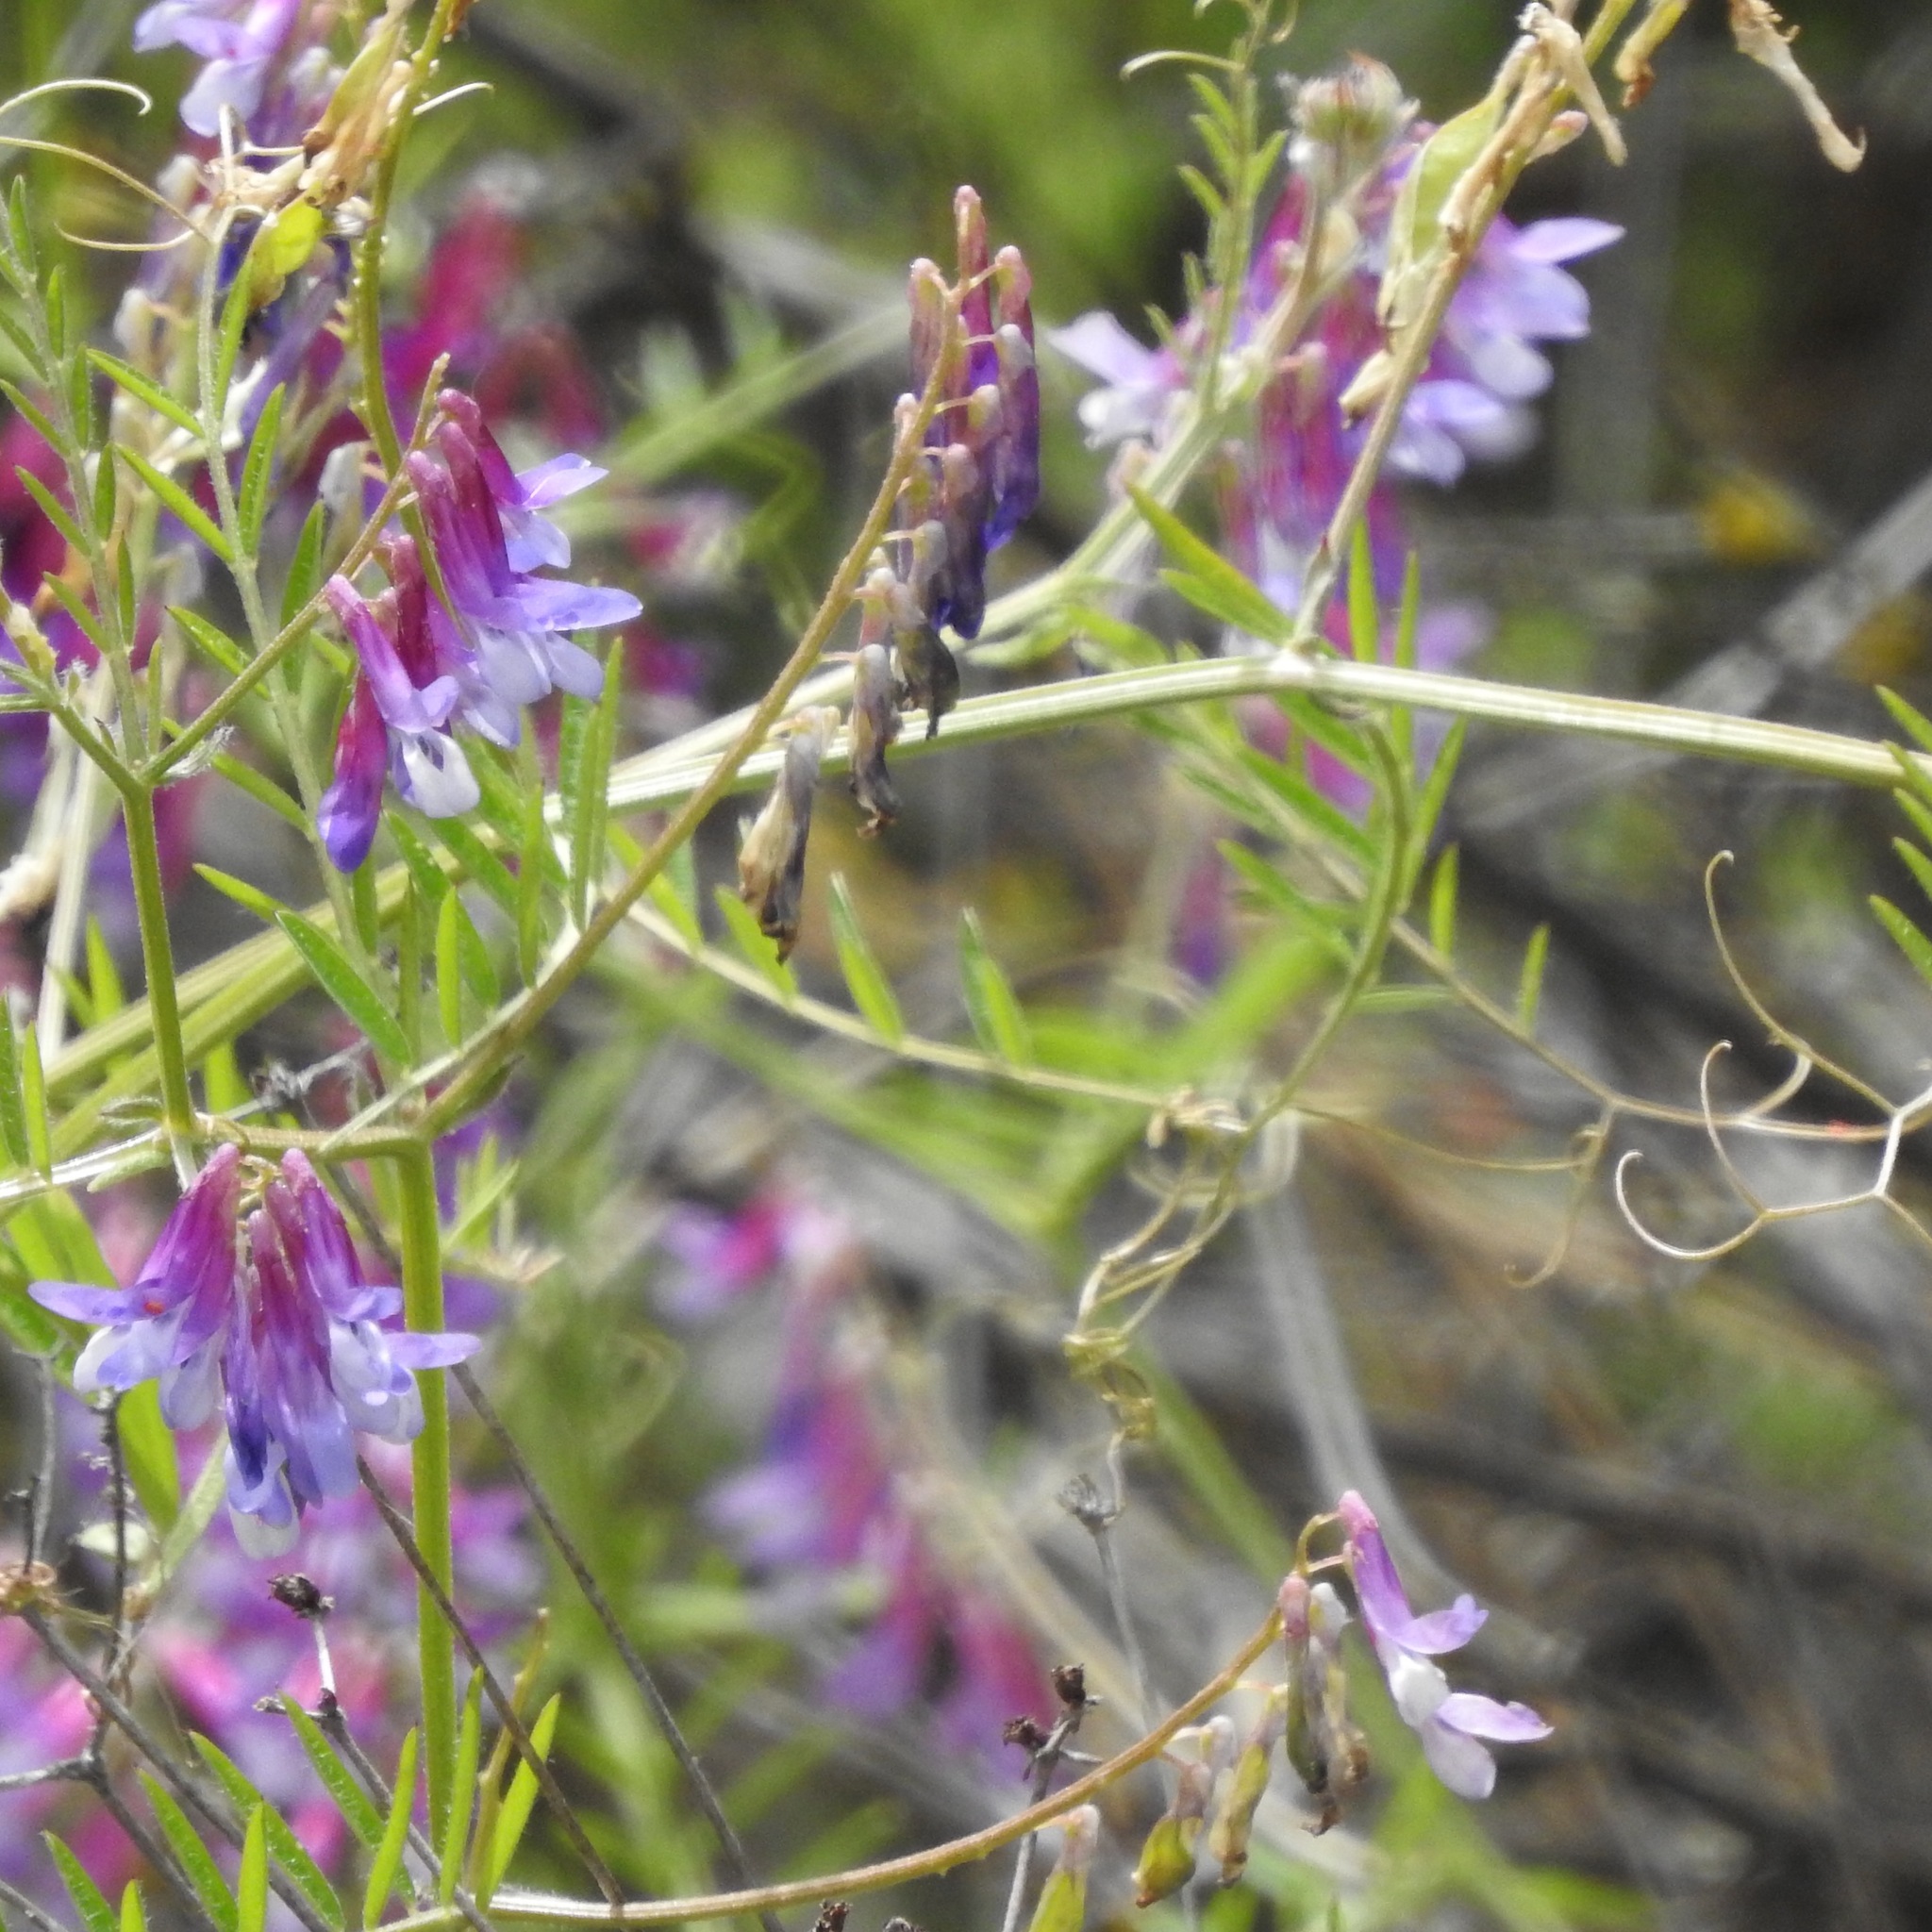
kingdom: Plantae
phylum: Tracheophyta
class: Magnoliopsida
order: Fabales
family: Fabaceae
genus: Vicia
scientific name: Vicia villosa
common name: Fodder vetch
